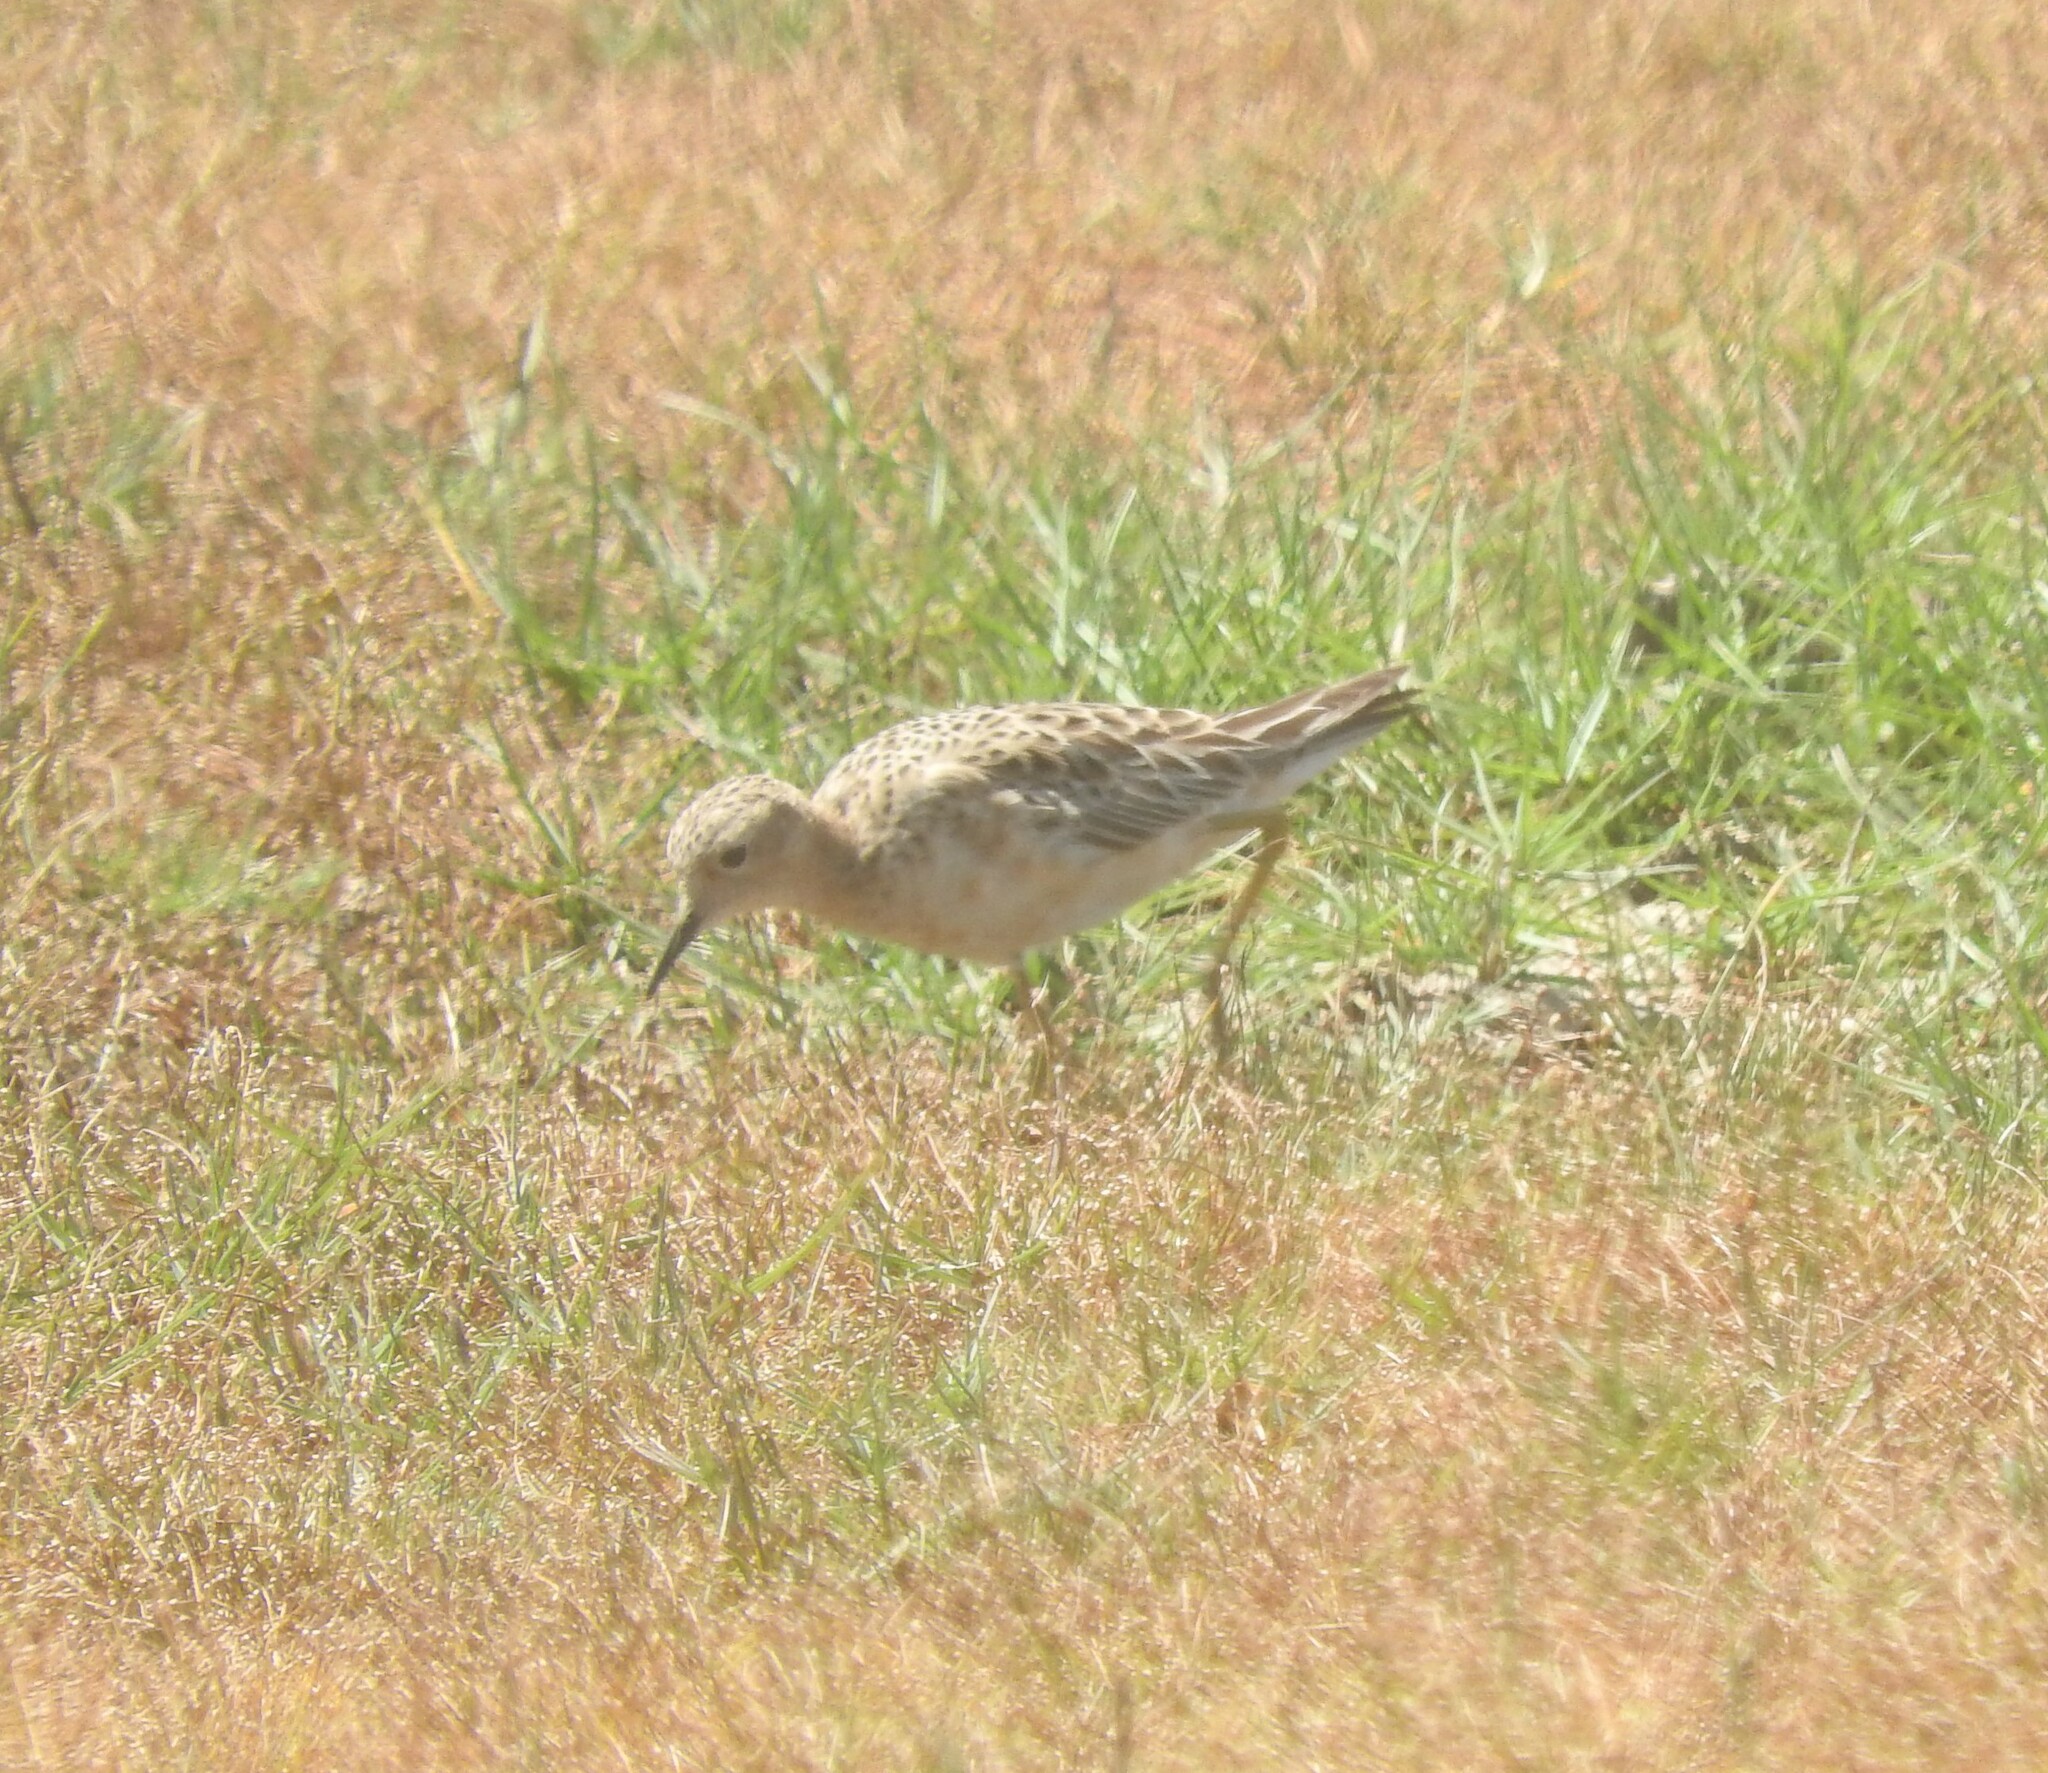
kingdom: Animalia
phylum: Chordata
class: Aves
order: Charadriiformes
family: Scolopacidae
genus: Calidris
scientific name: Calidris subruficollis
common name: Buff-breasted sandpiper
